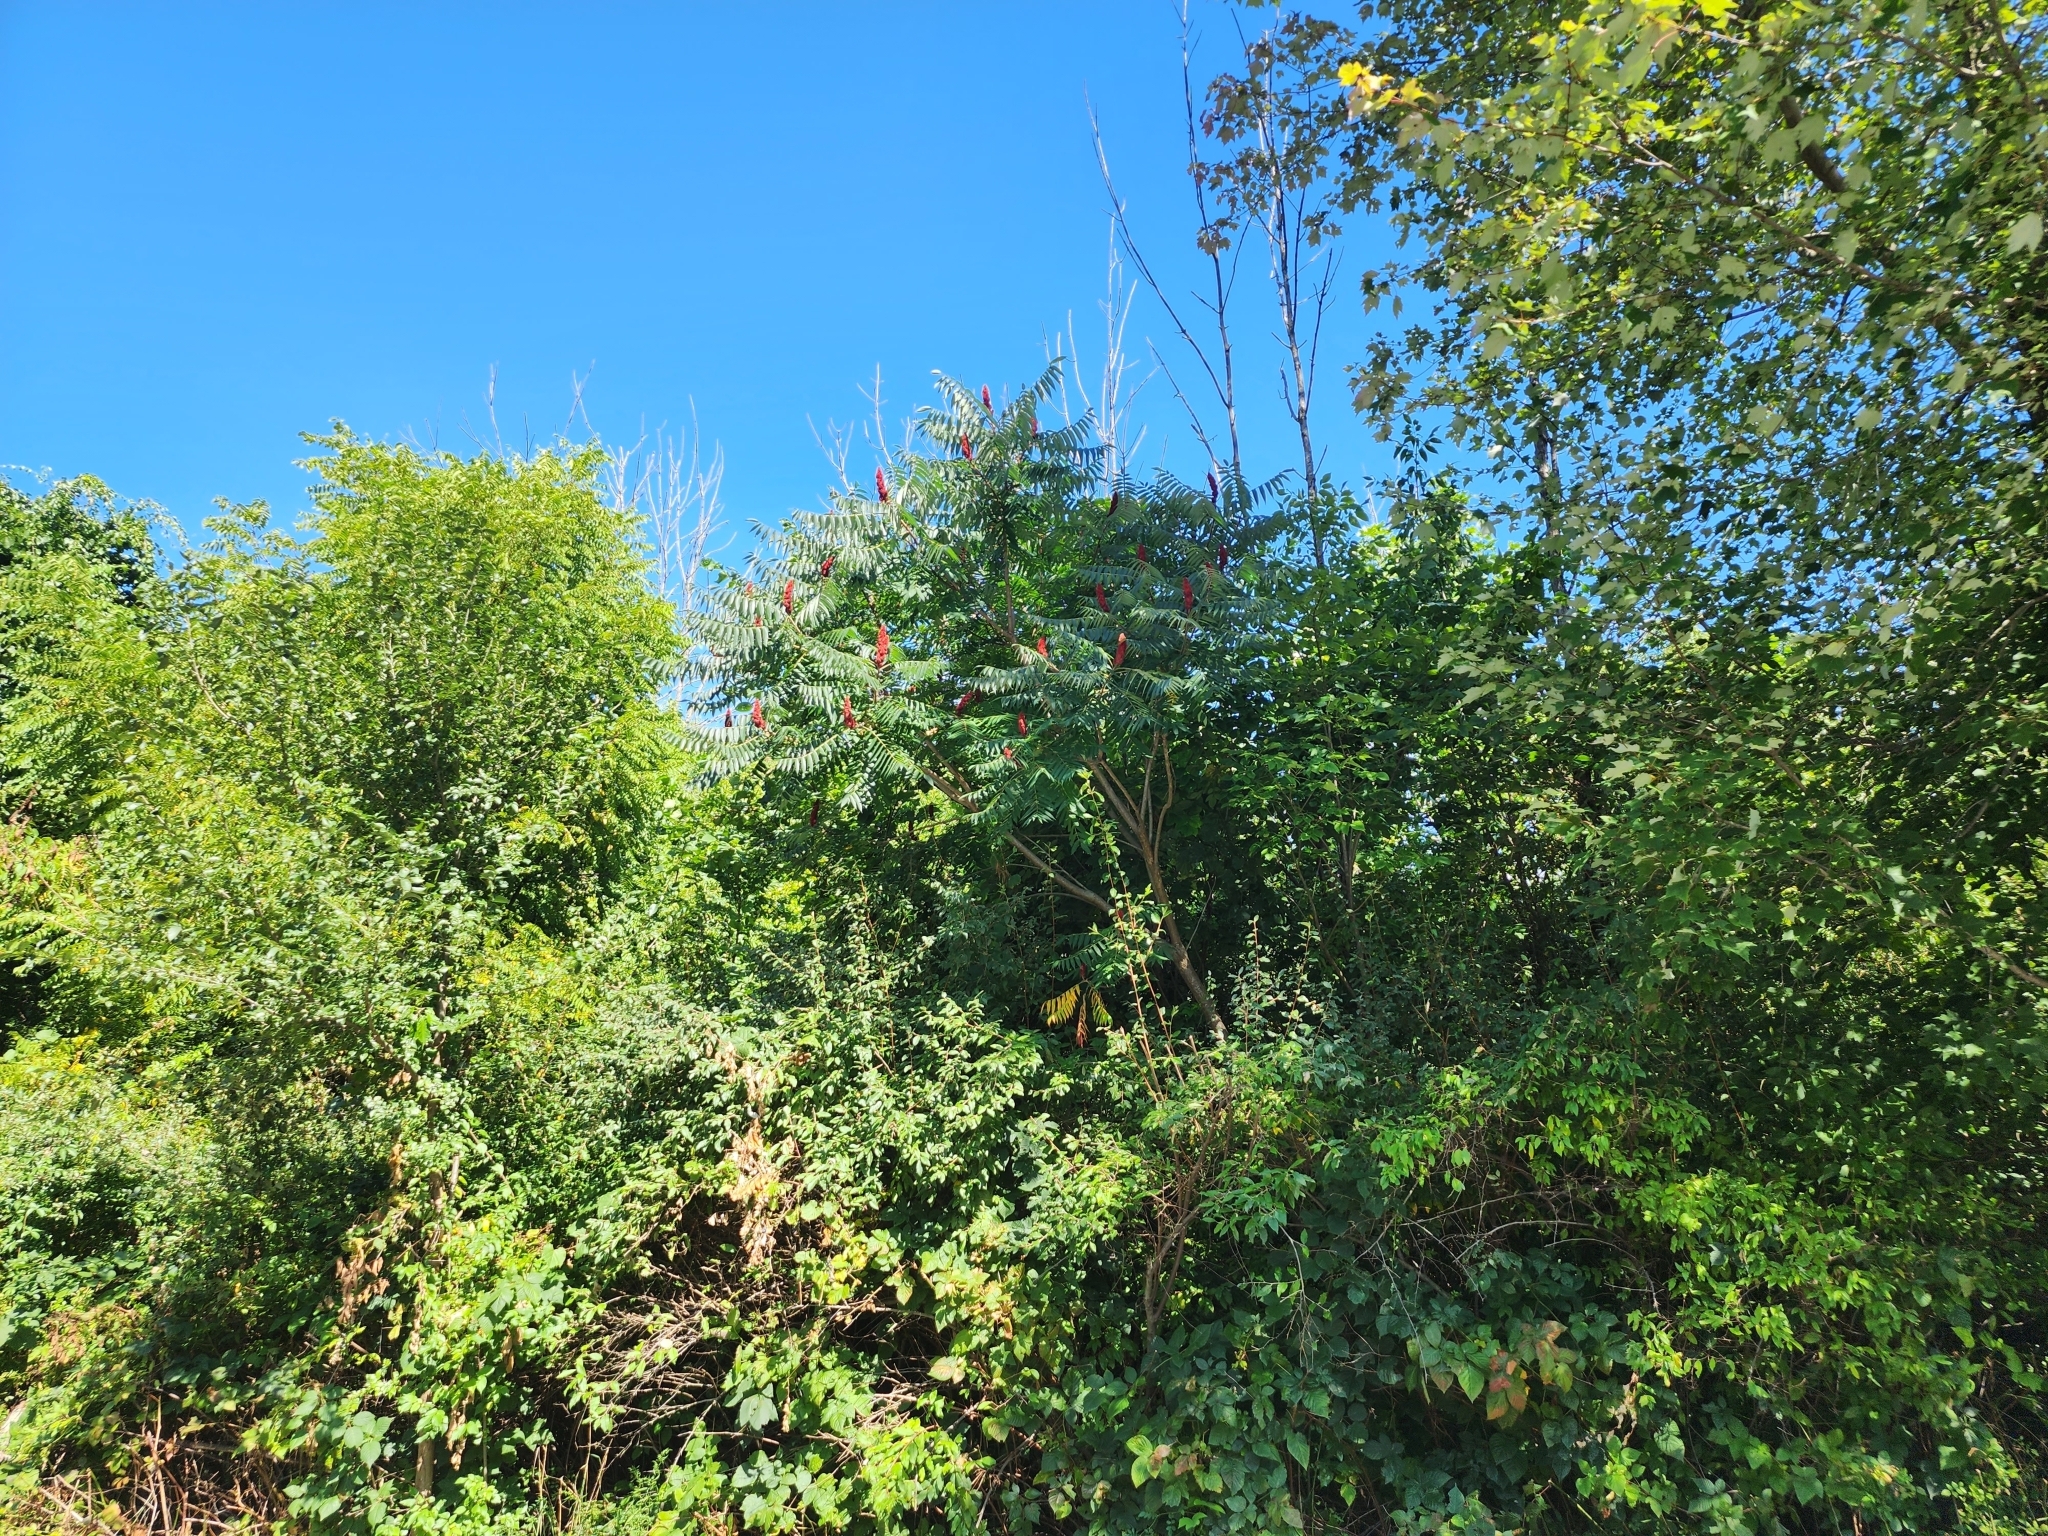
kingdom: Plantae
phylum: Tracheophyta
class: Magnoliopsida
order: Sapindales
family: Anacardiaceae
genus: Rhus
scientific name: Rhus typhina
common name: Staghorn sumac
